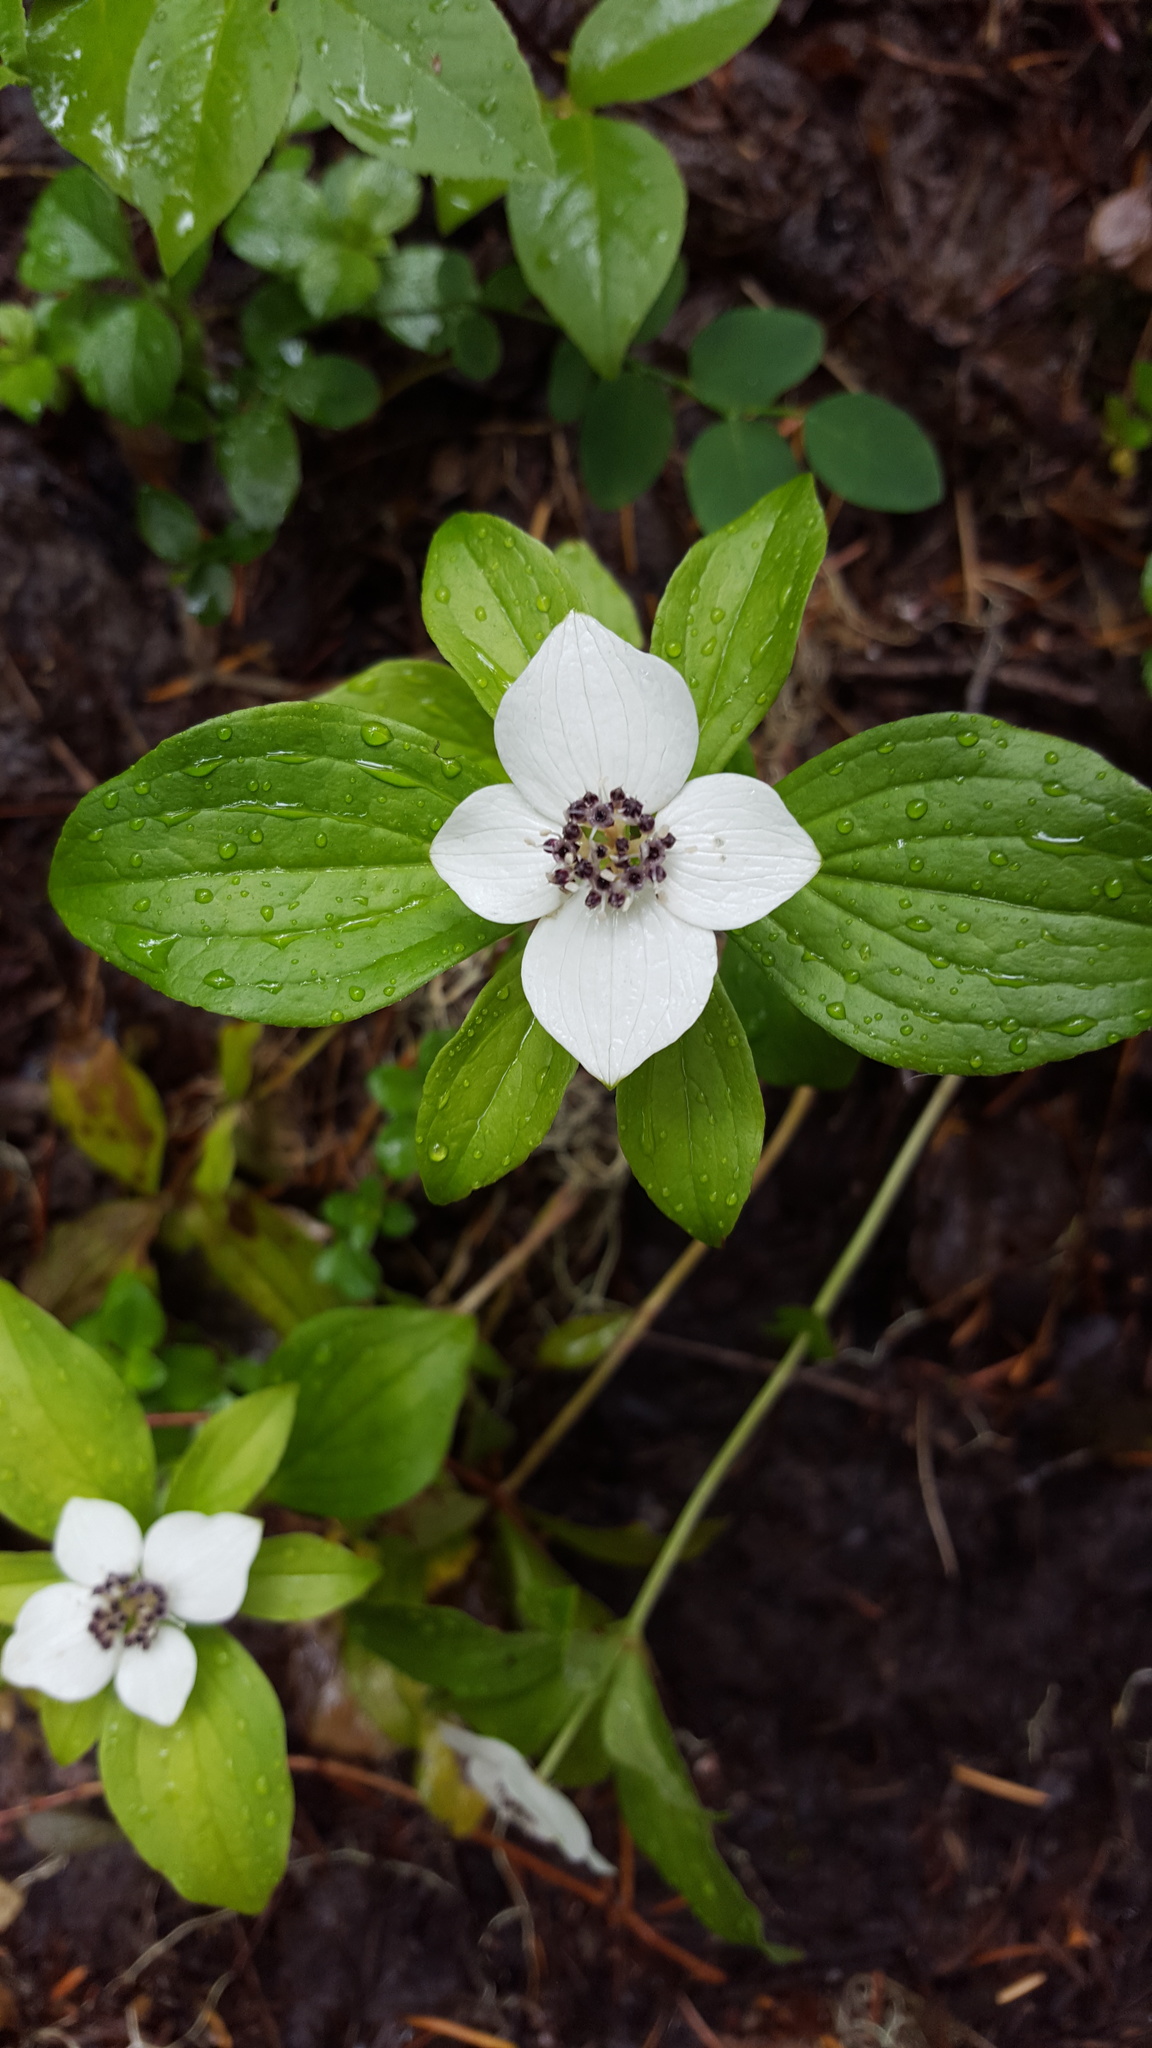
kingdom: Plantae
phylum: Tracheophyta
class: Magnoliopsida
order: Cornales
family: Cornaceae
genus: Cornus
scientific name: Cornus unalaschkensis
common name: Alaska bunchberry
